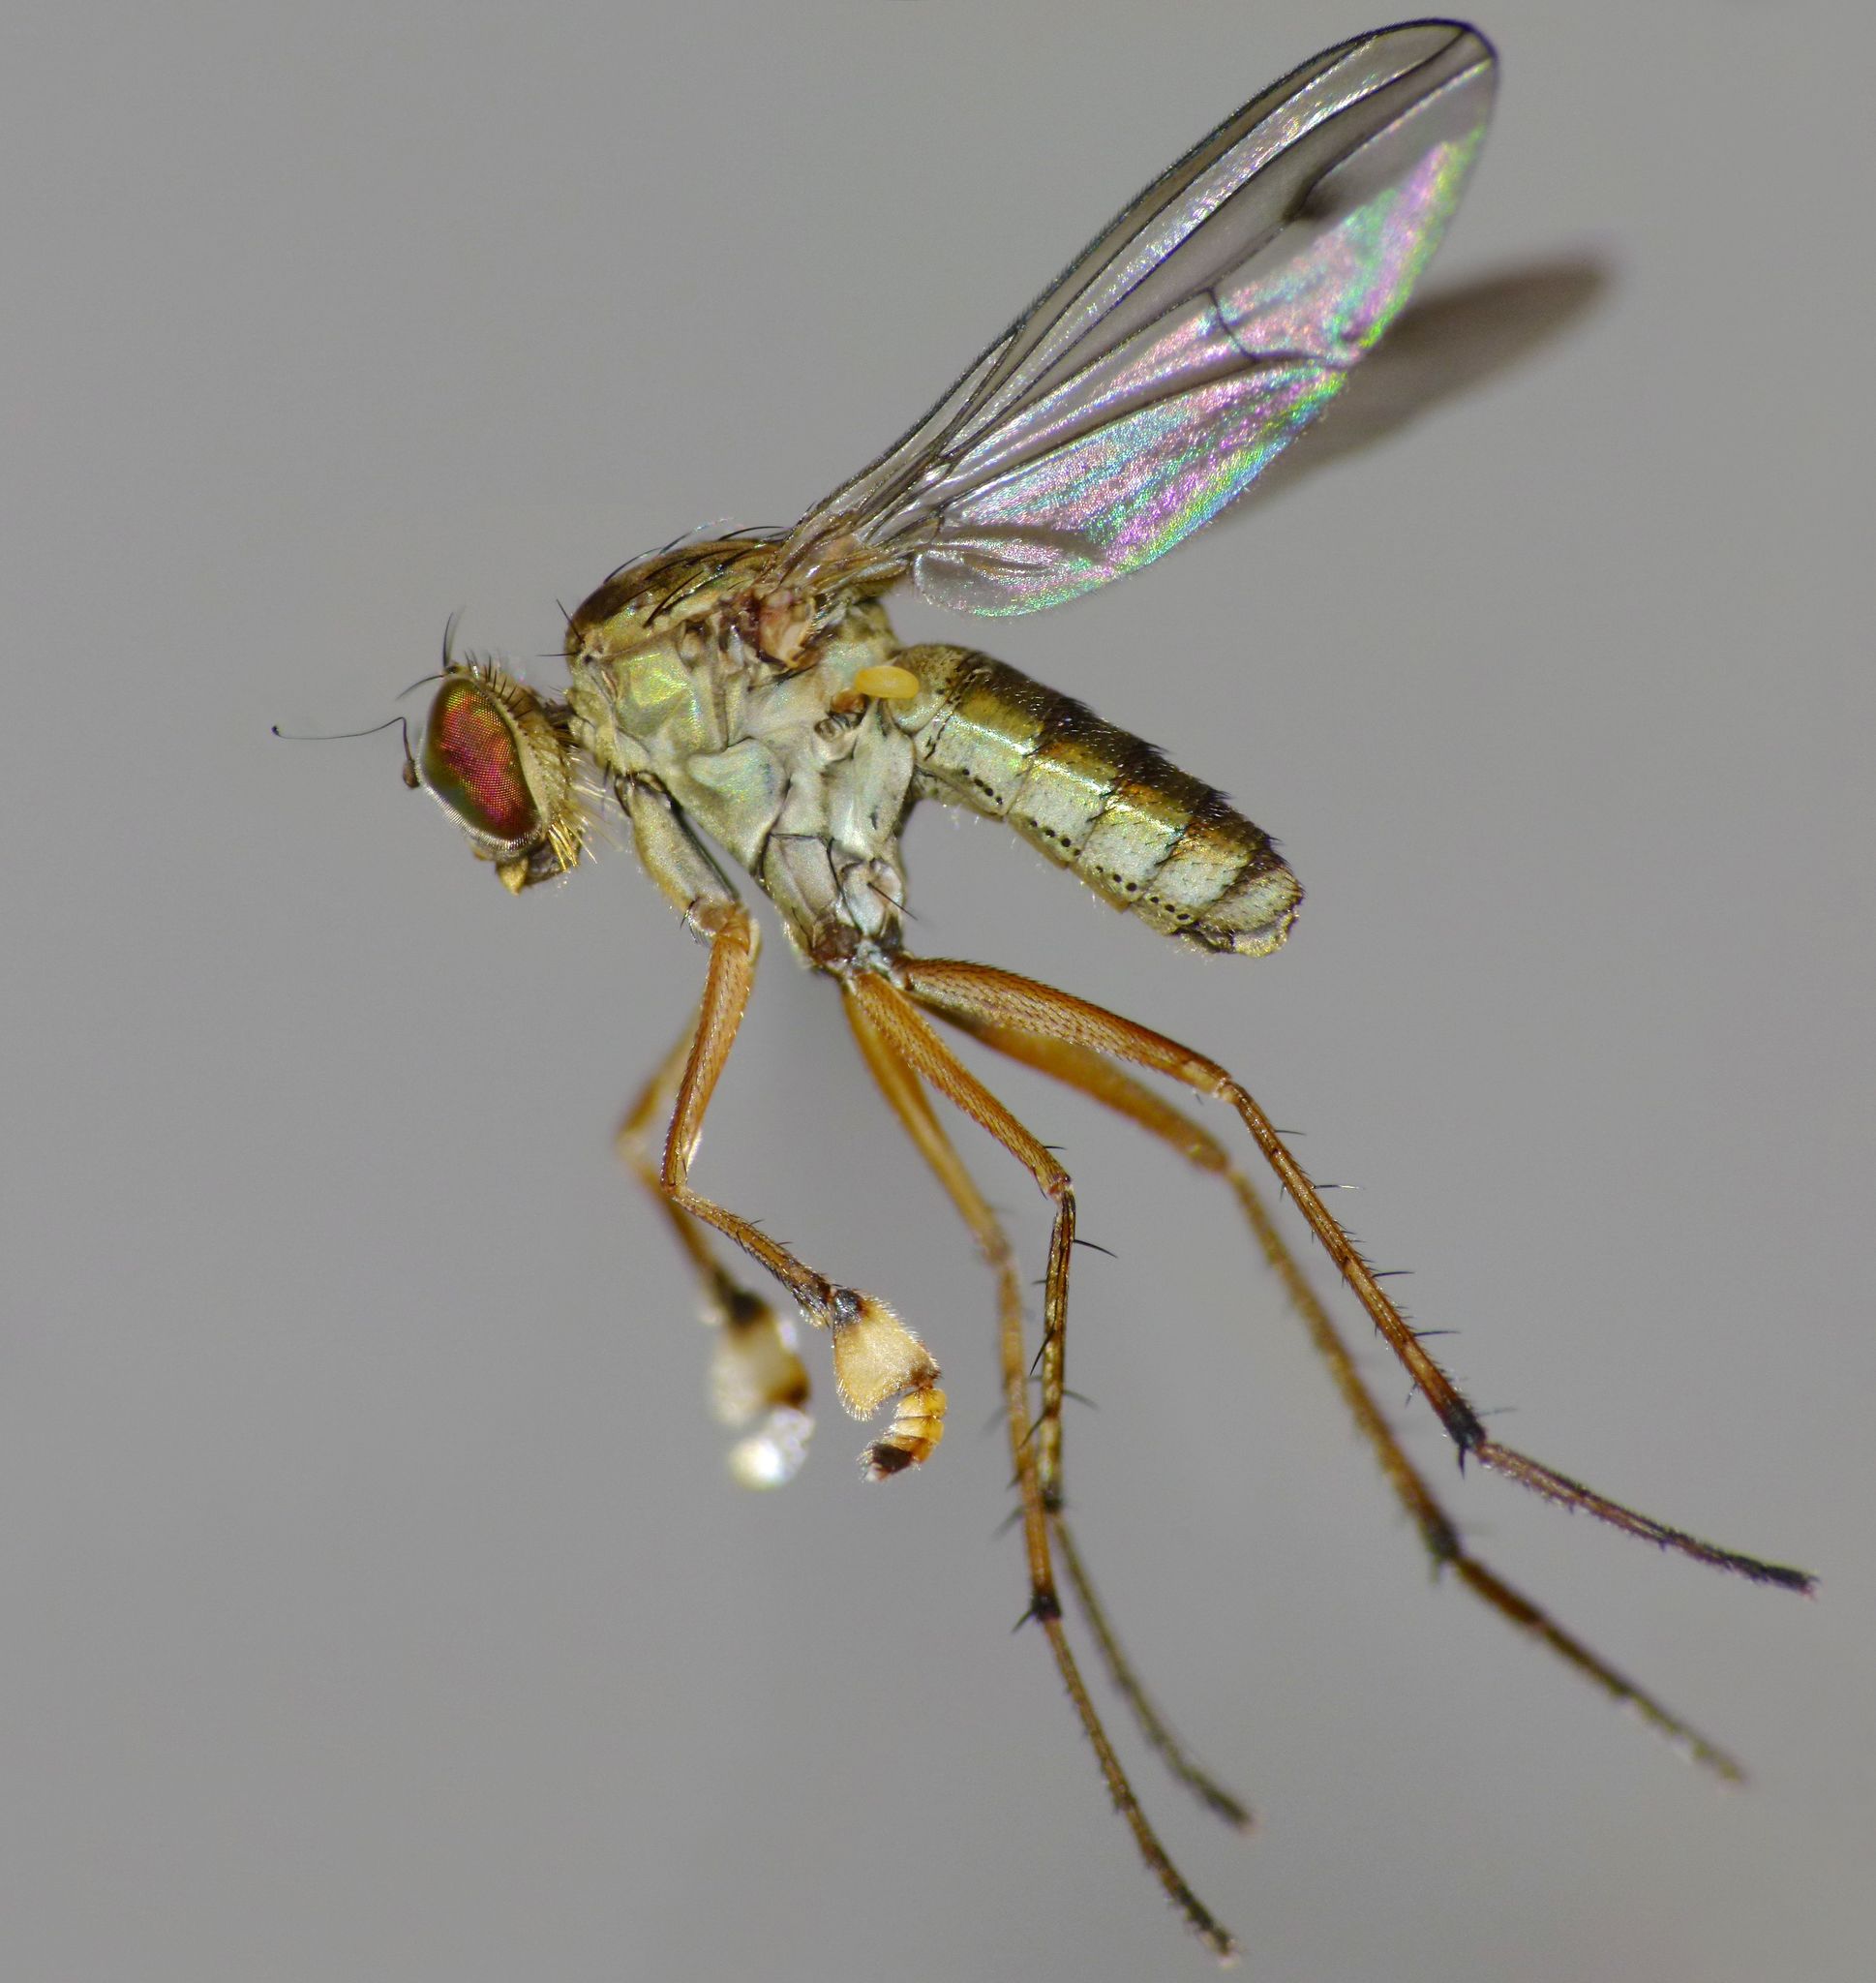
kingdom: Animalia
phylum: Arthropoda
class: Insecta
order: Diptera
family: Dolichopodidae
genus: Helichochaetus
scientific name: Helichochaetus discifer
